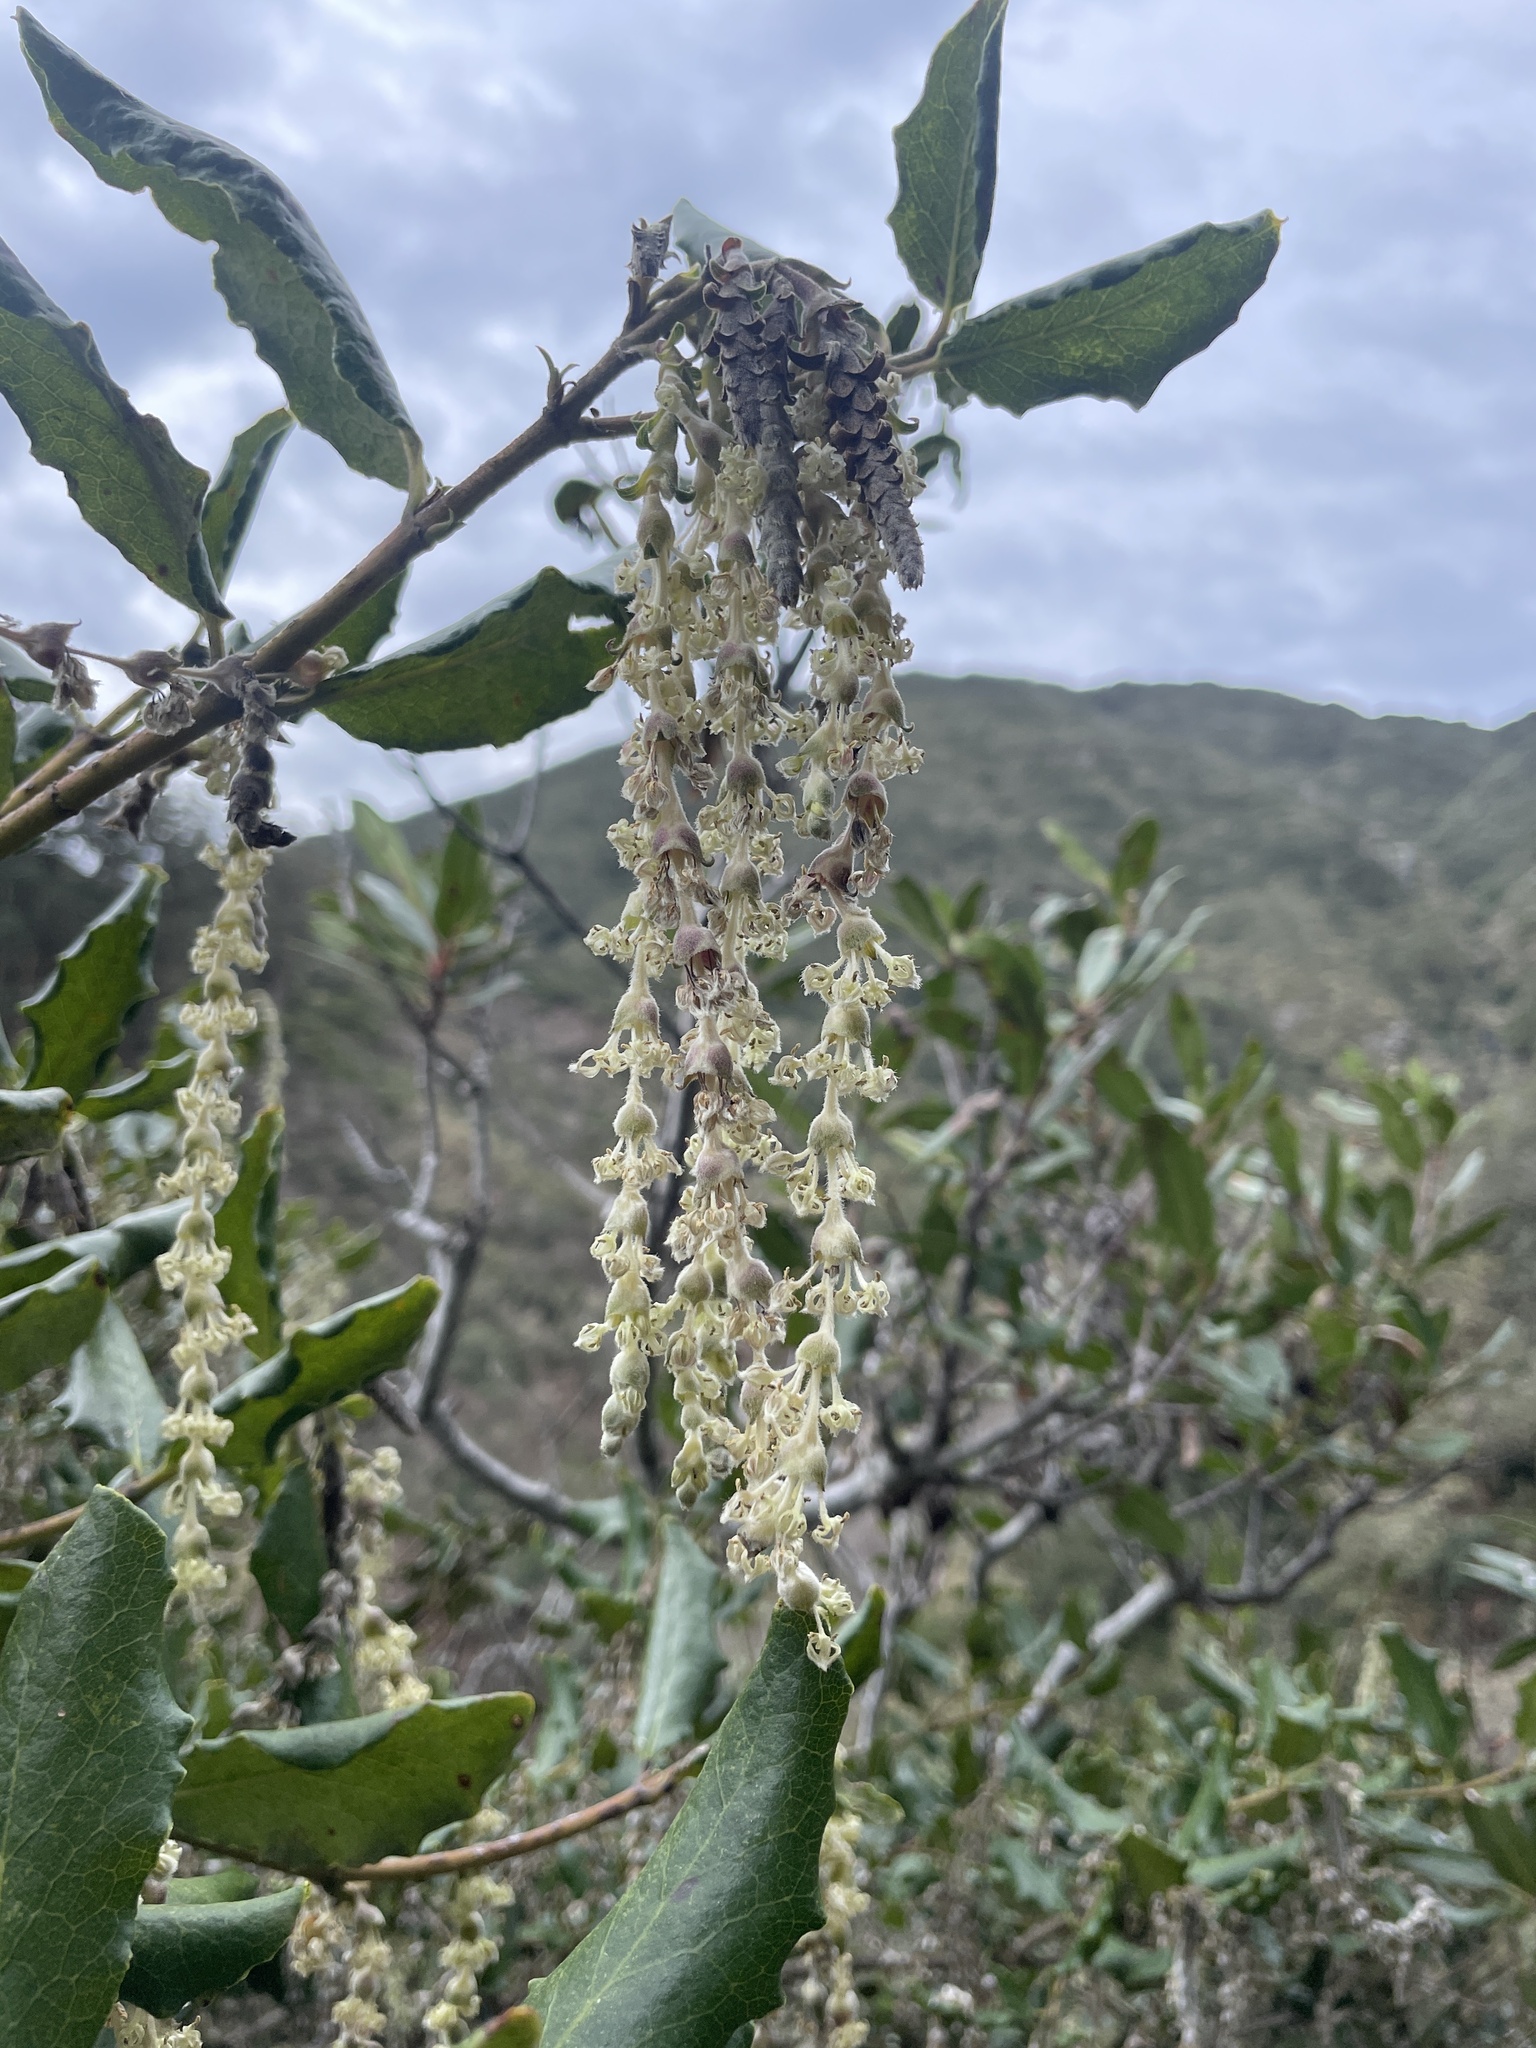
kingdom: Plantae
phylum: Tracheophyta
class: Magnoliopsida
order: Garryales
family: Garryaceae
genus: Garrya
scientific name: Garrya elliptica
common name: Silk-tassel
